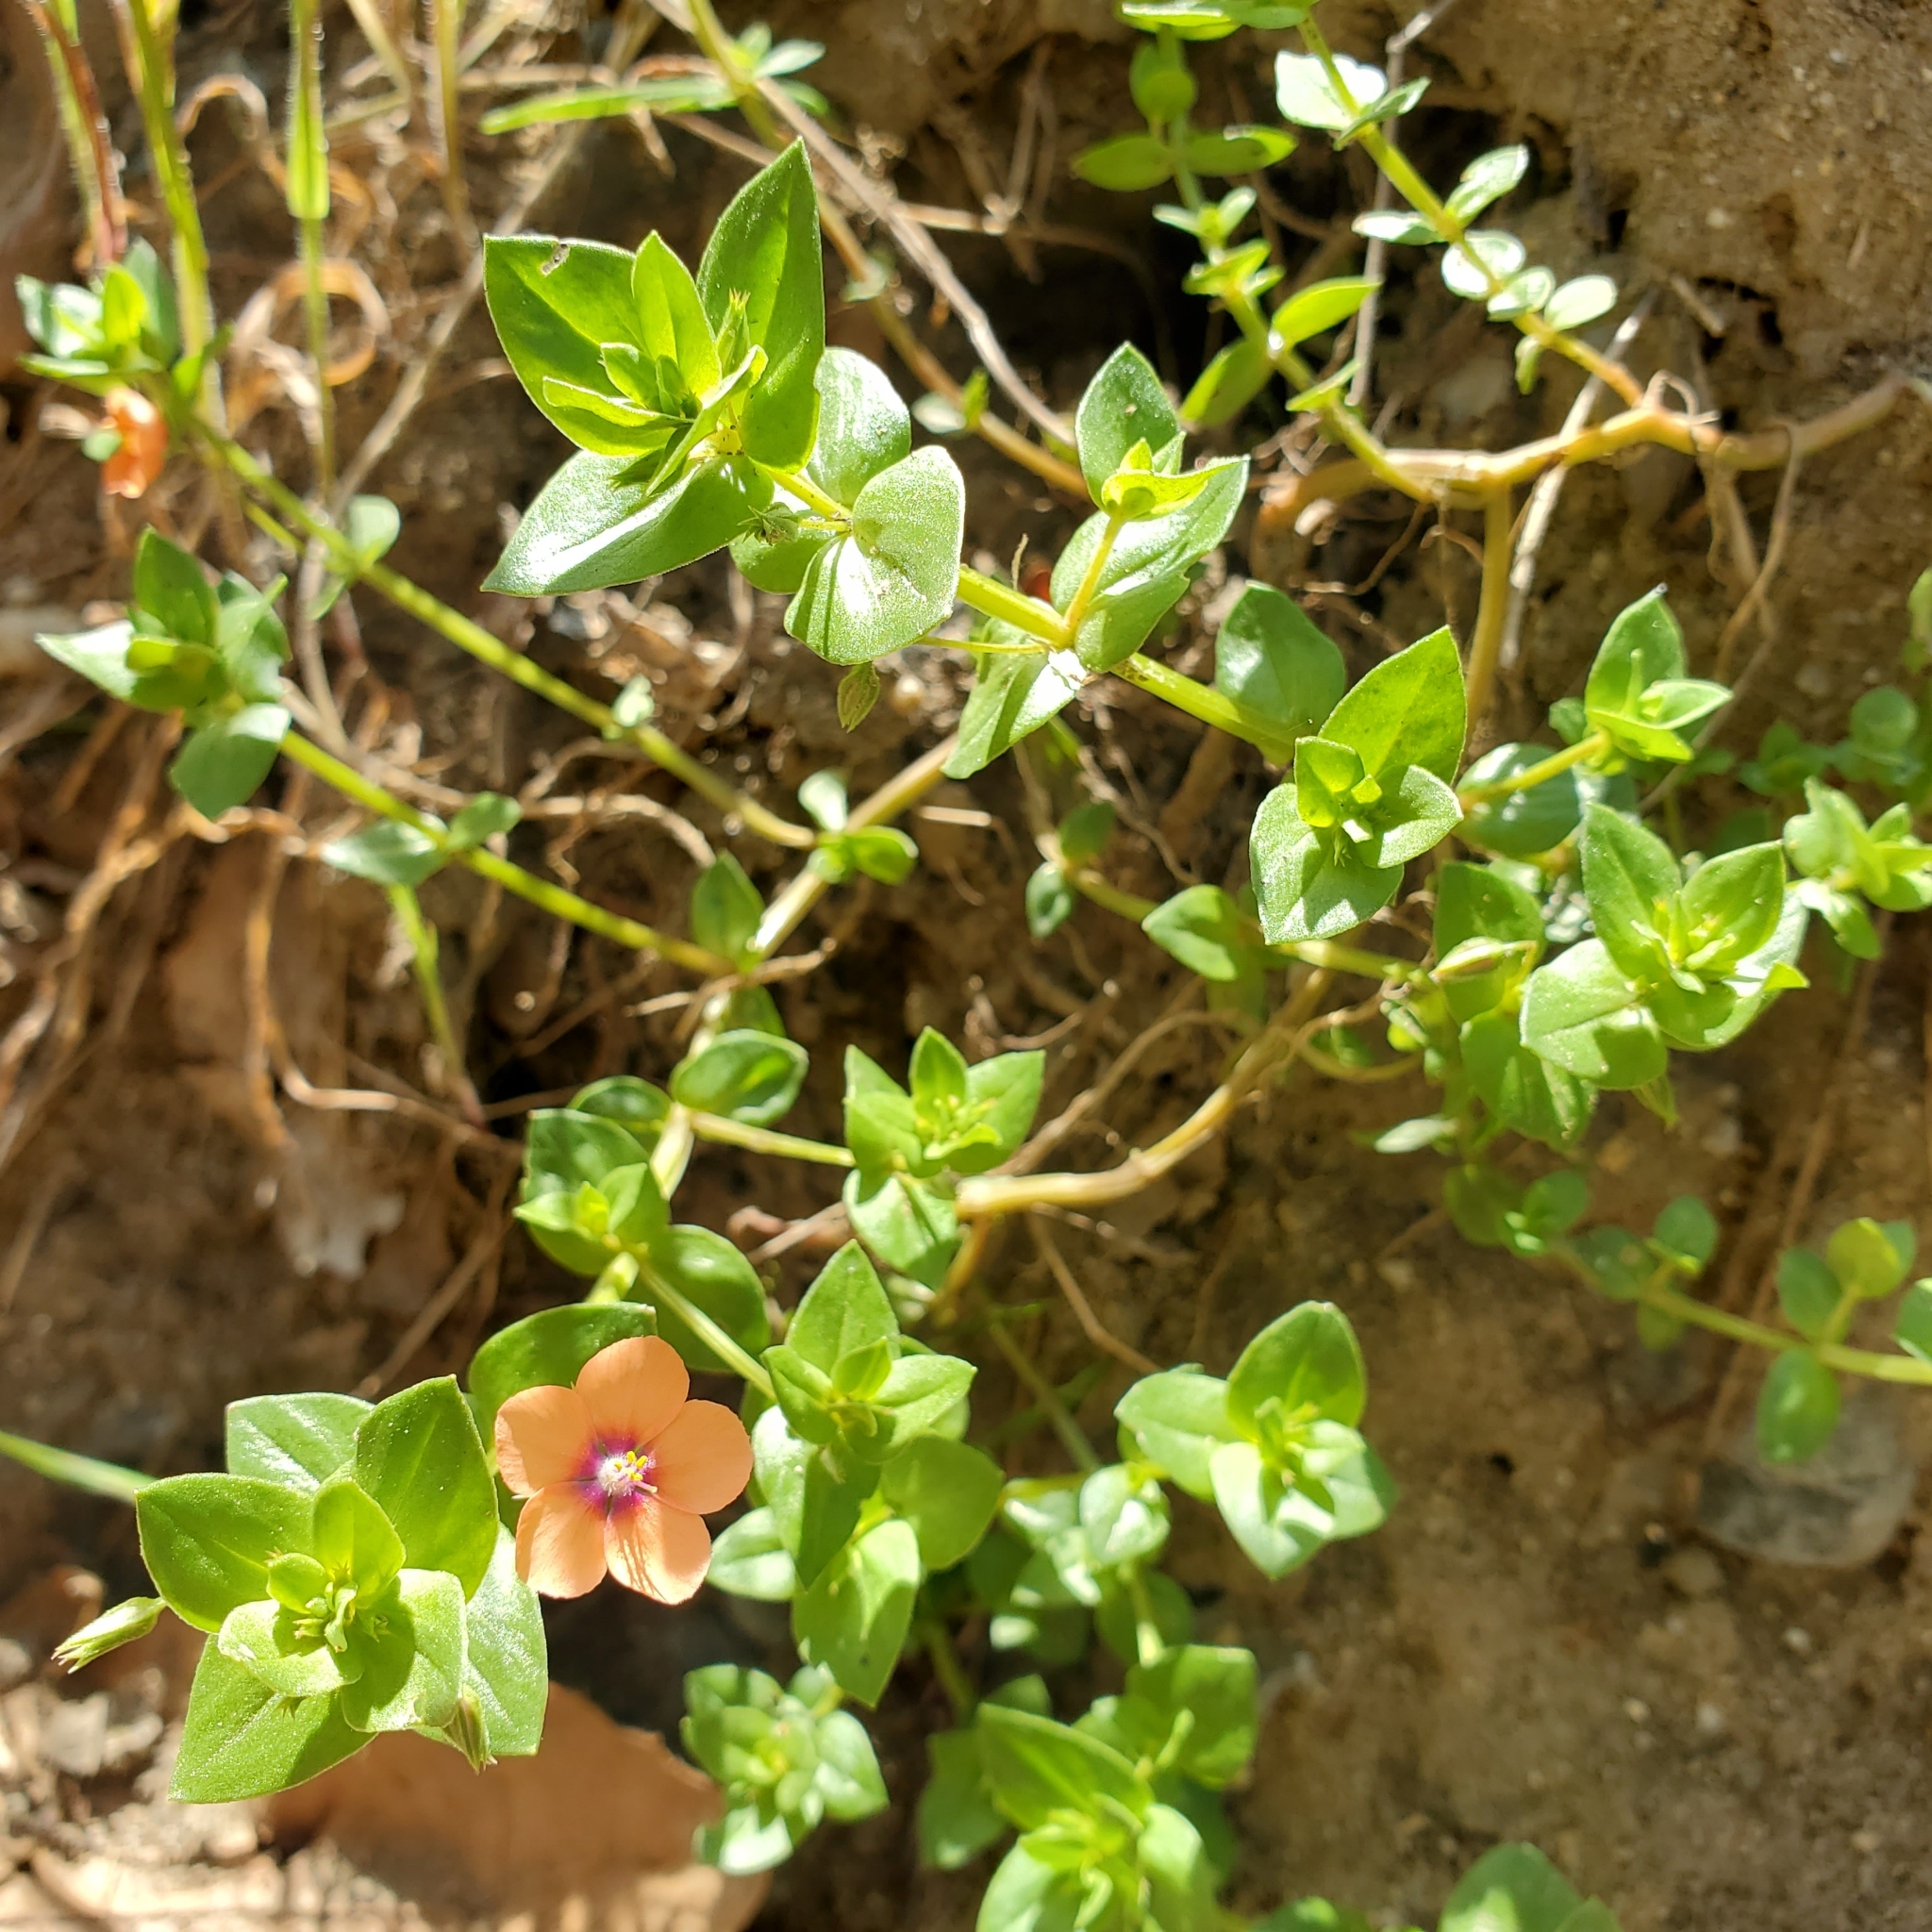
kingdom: Plantae
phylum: Tracheophyta
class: Magnoliopsida
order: Ericales
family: Primulaceae
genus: Lysimachia
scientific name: Lysimachia arvensis
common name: Scarlet pimpernel
